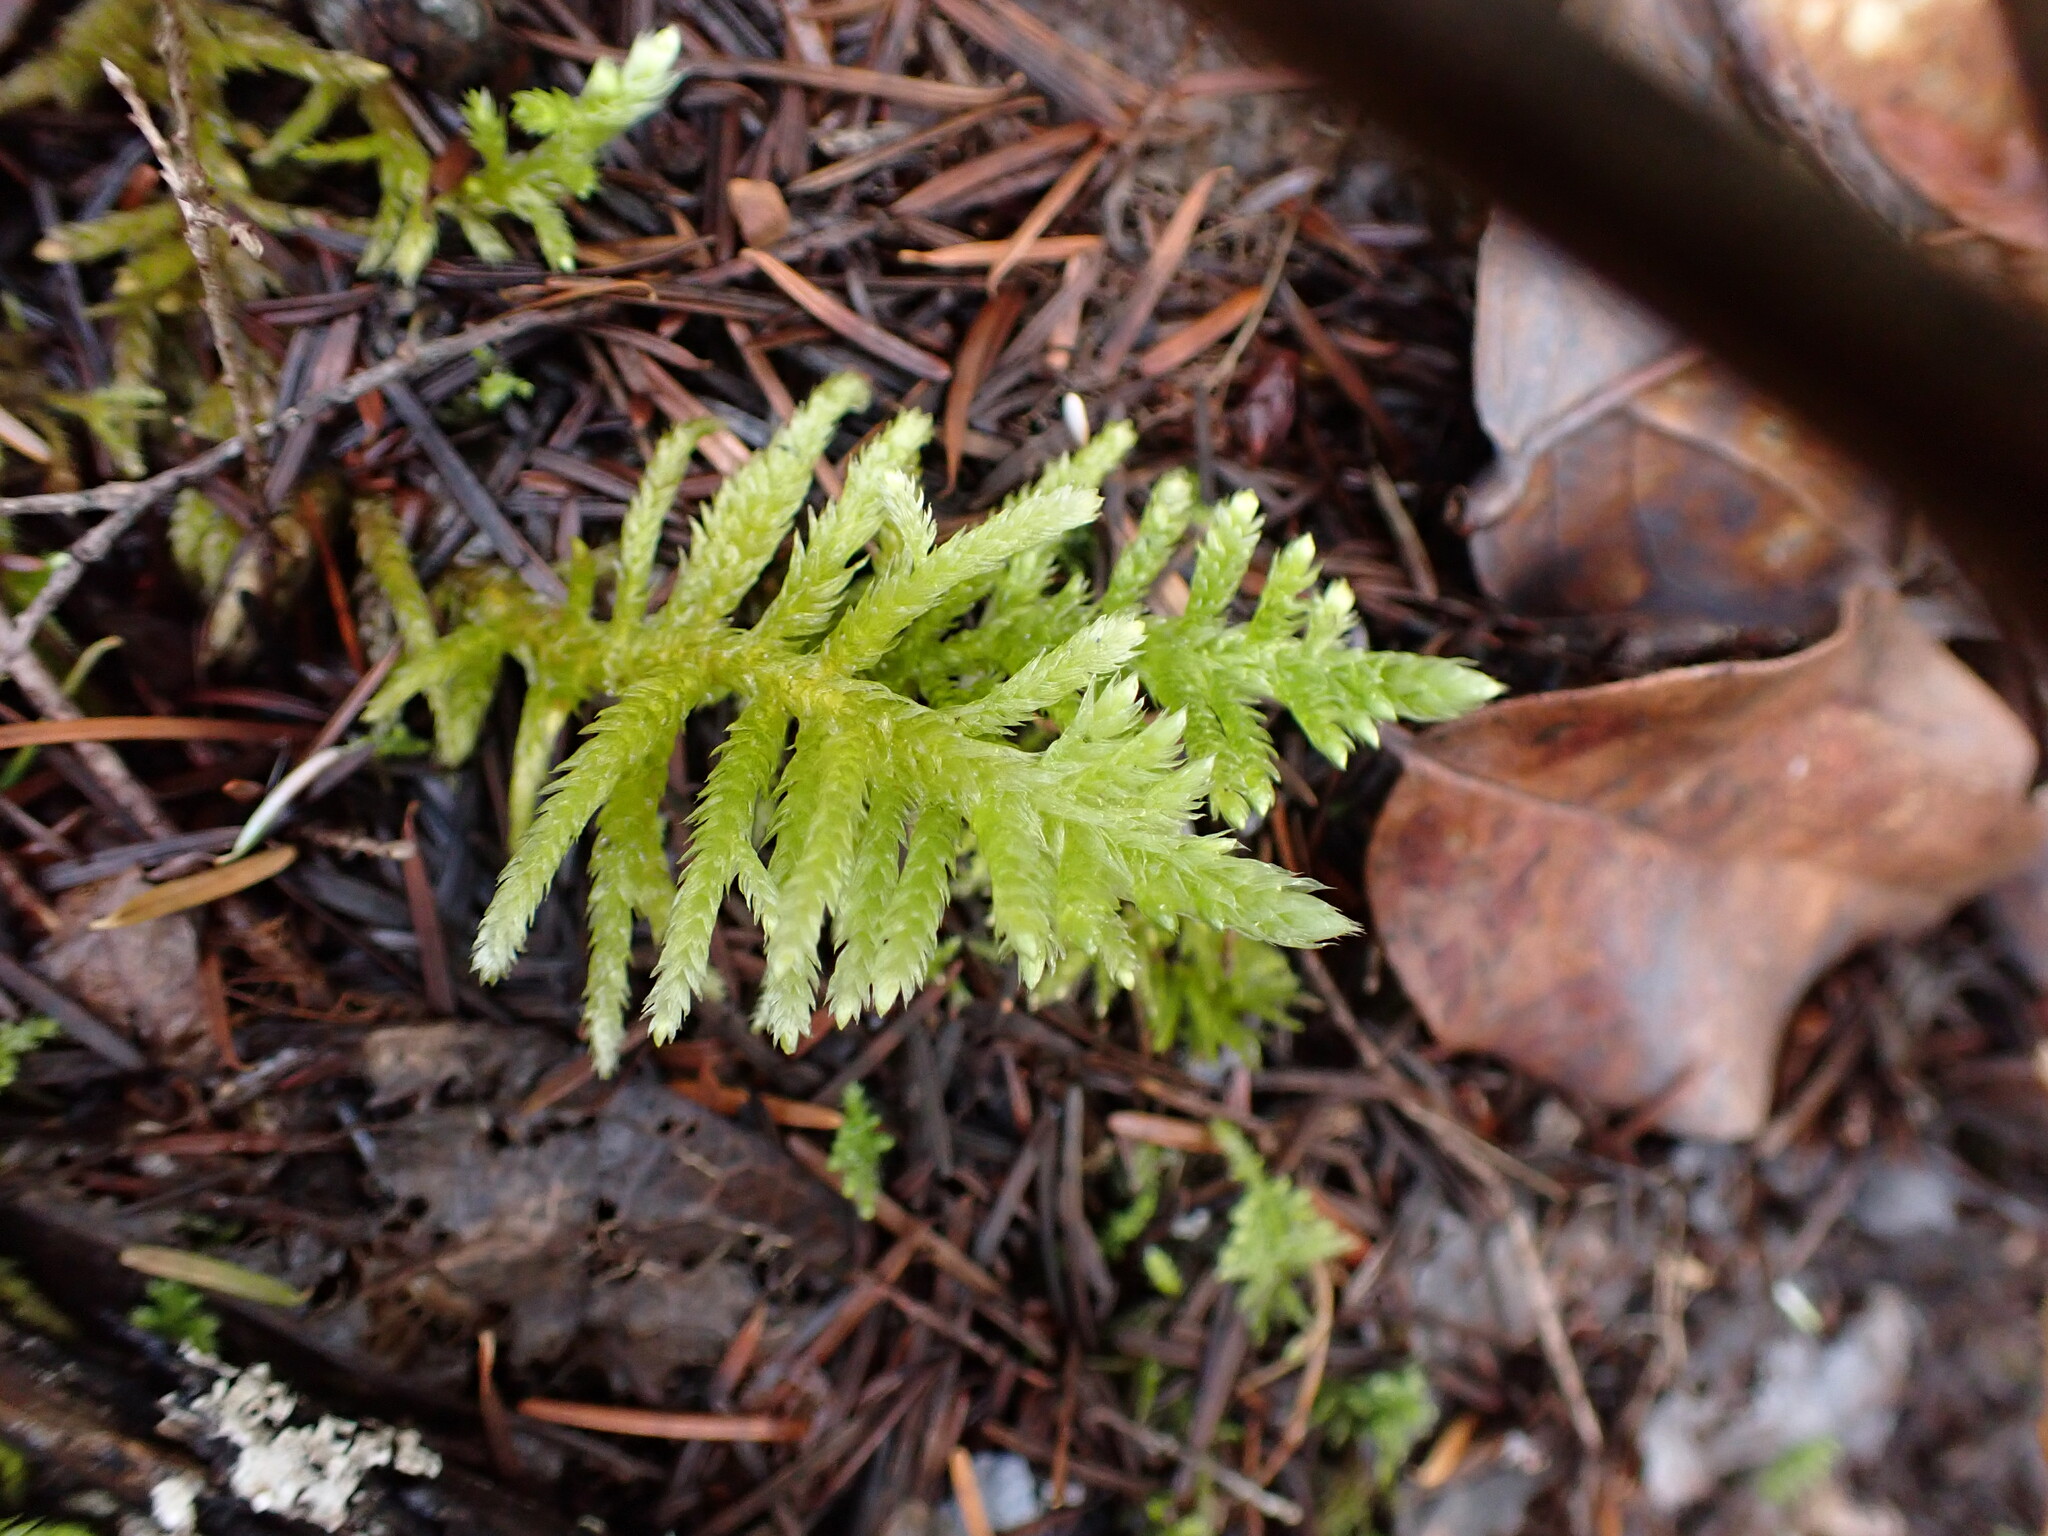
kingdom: Plantae
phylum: Bryophyta
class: Bryopsida
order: Hypnales
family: Brachytheciaceae
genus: Homalothecium
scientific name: Homalothecium megaptilum
